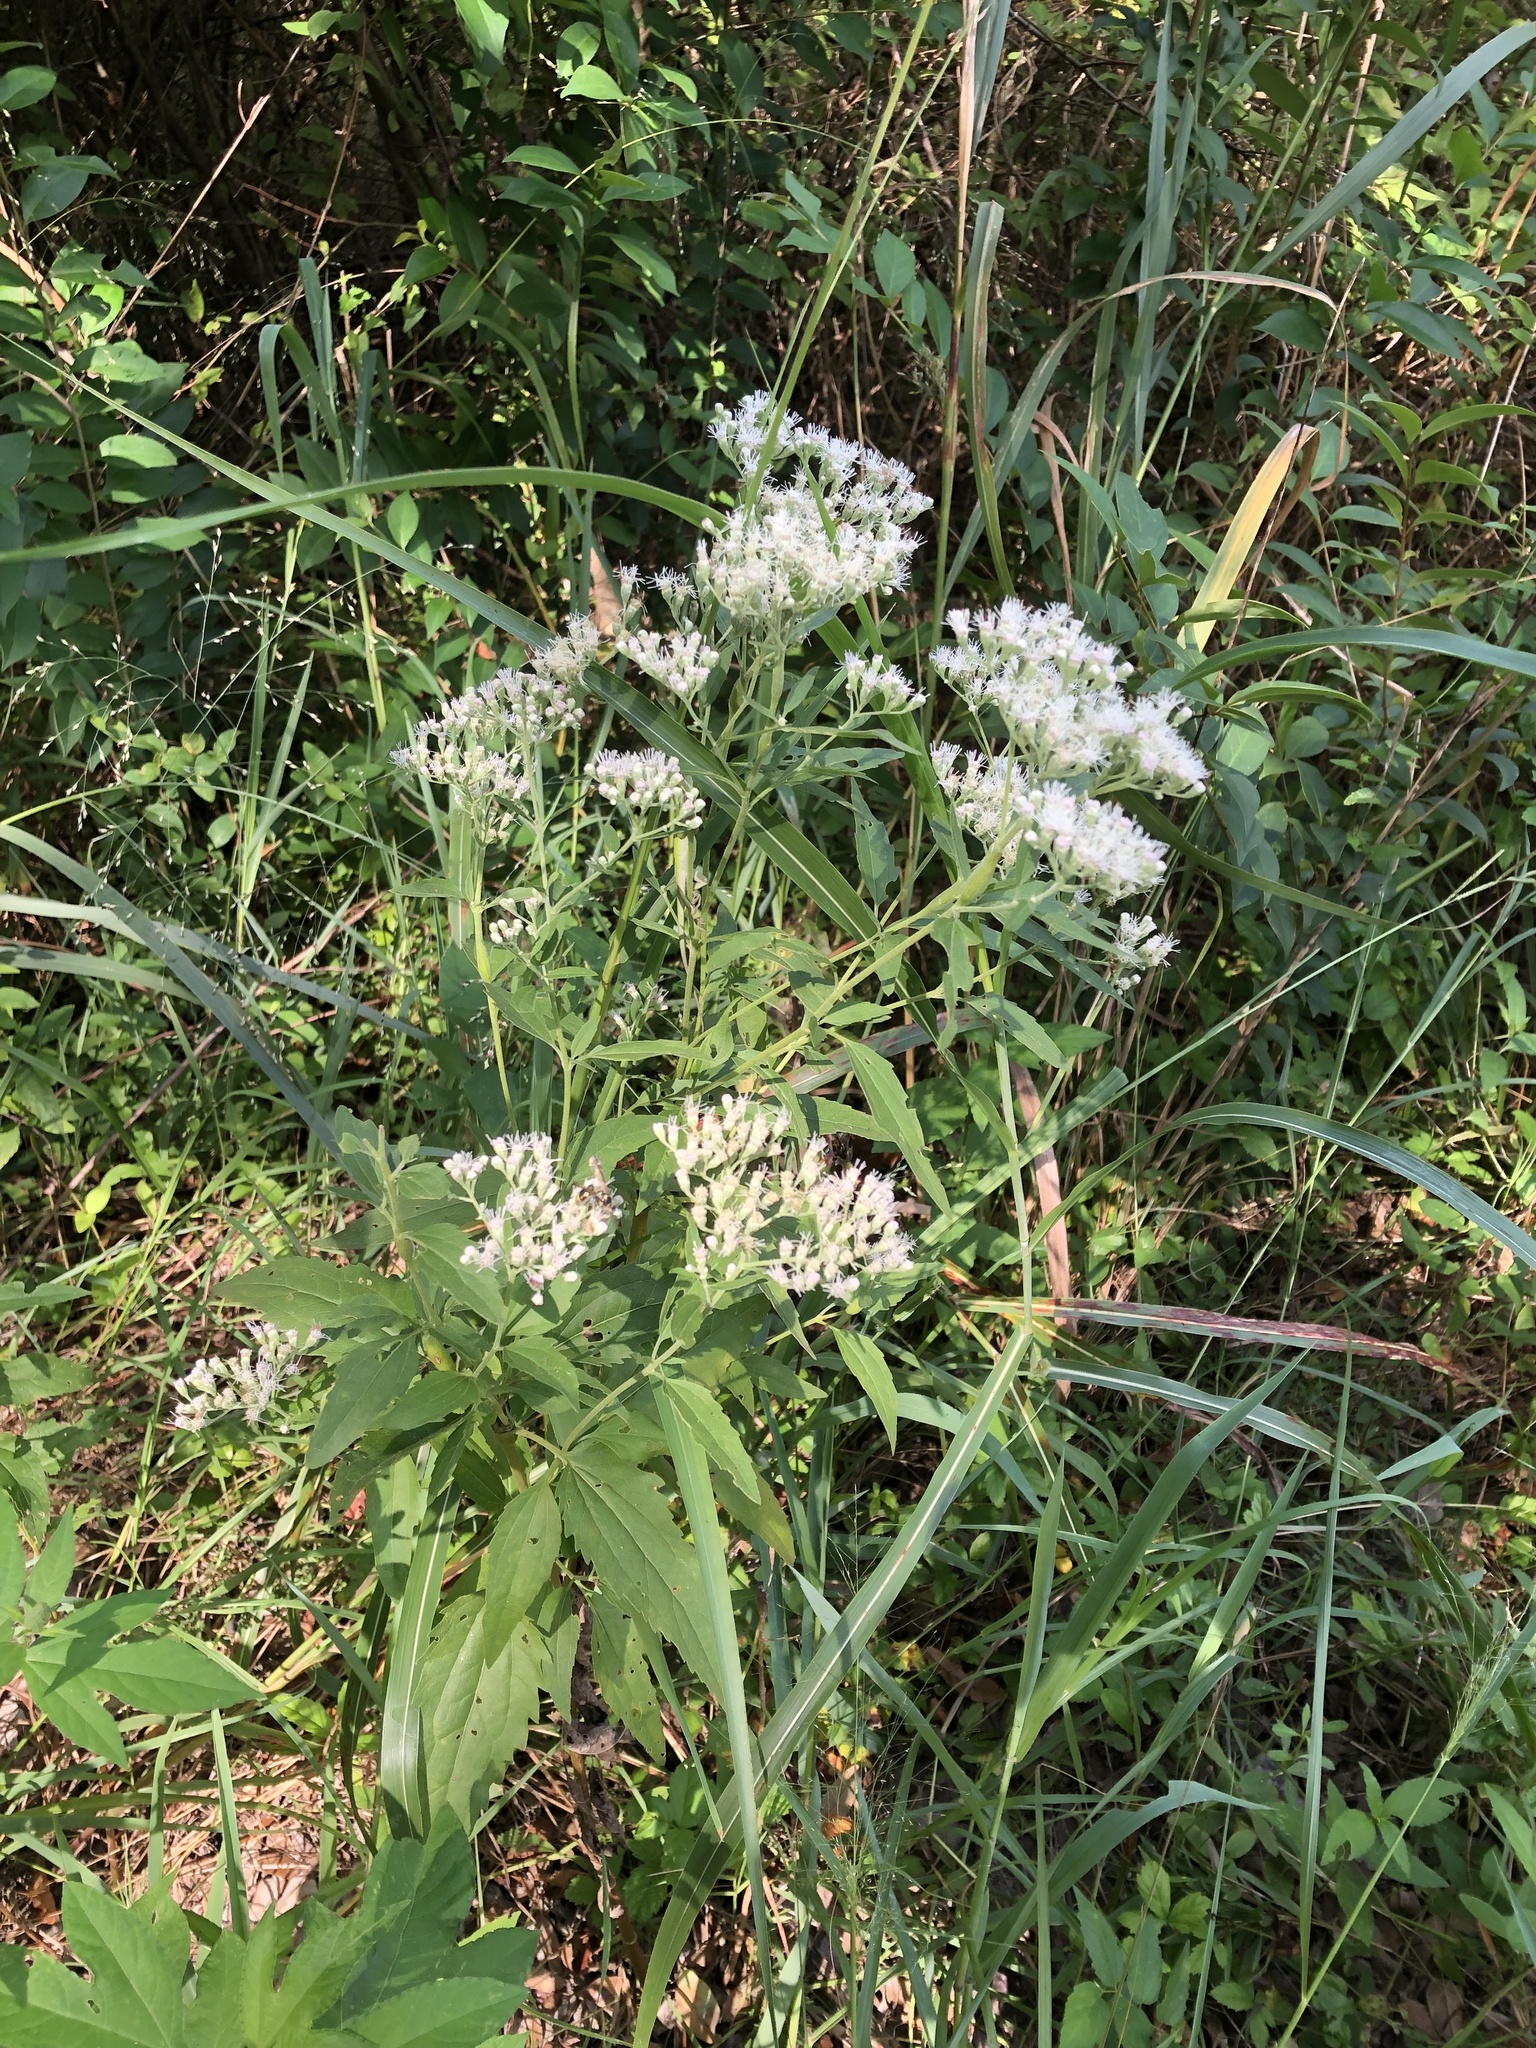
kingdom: Plantae
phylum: Tracheophyta
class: Magnoliopsida
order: Asterales
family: Asteraceae
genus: Eupatorium
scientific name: Eupatorium serotinum
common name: Late boneset
